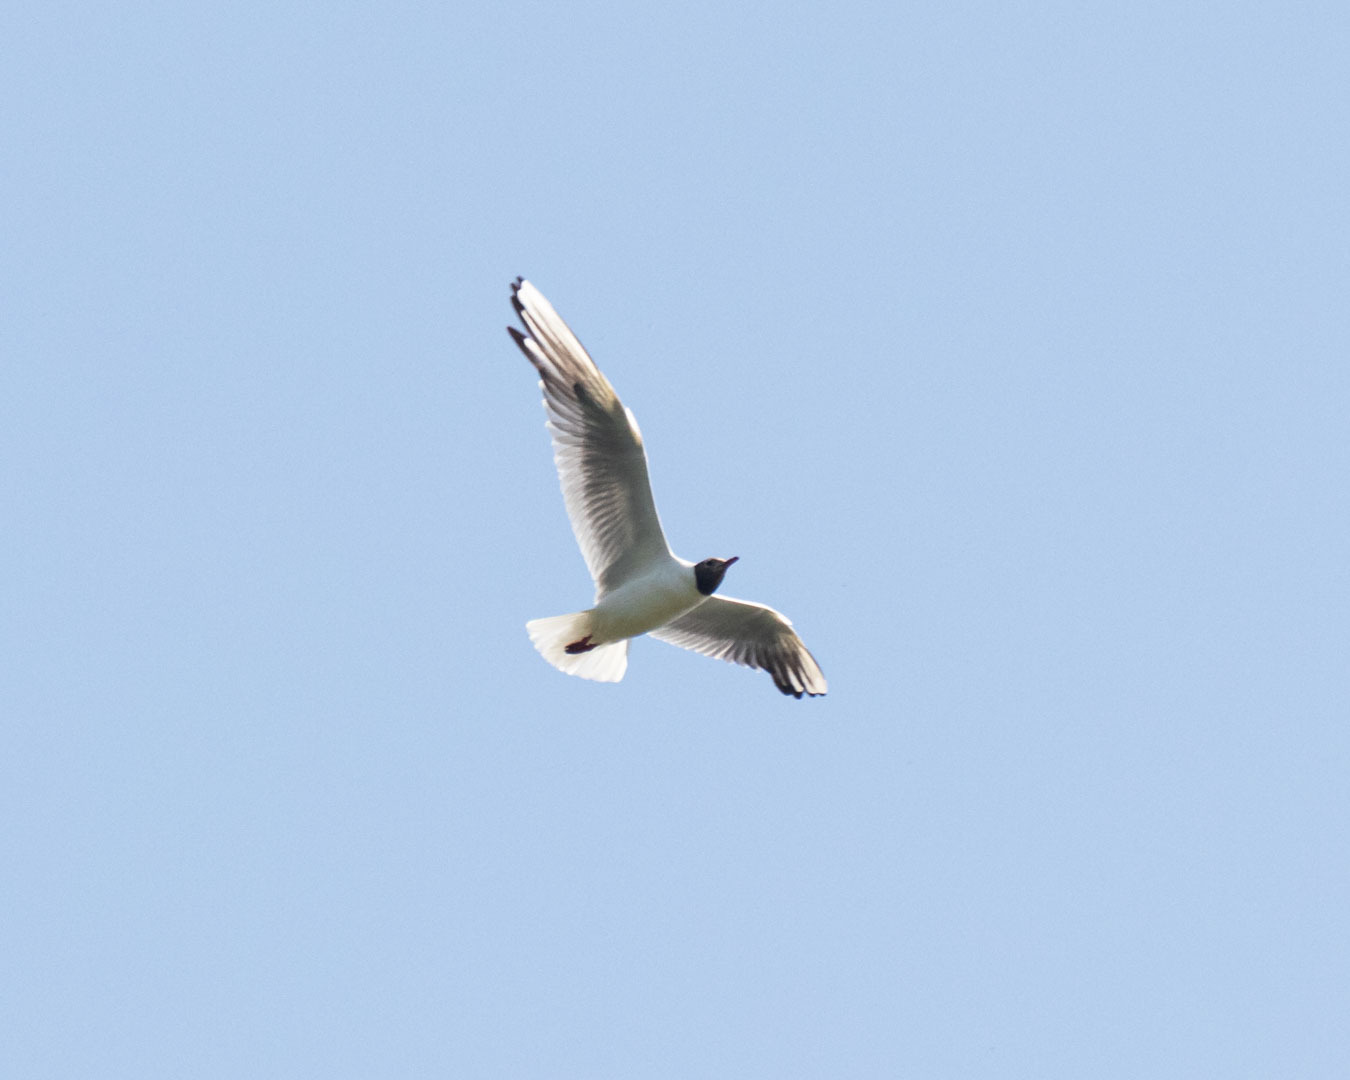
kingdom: Animalia
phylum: Chordata
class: Aves
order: Charadriiformes
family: Laridae
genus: Chroicocephalus
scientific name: Chroicocephalus ridibundus
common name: Black-headed gull
